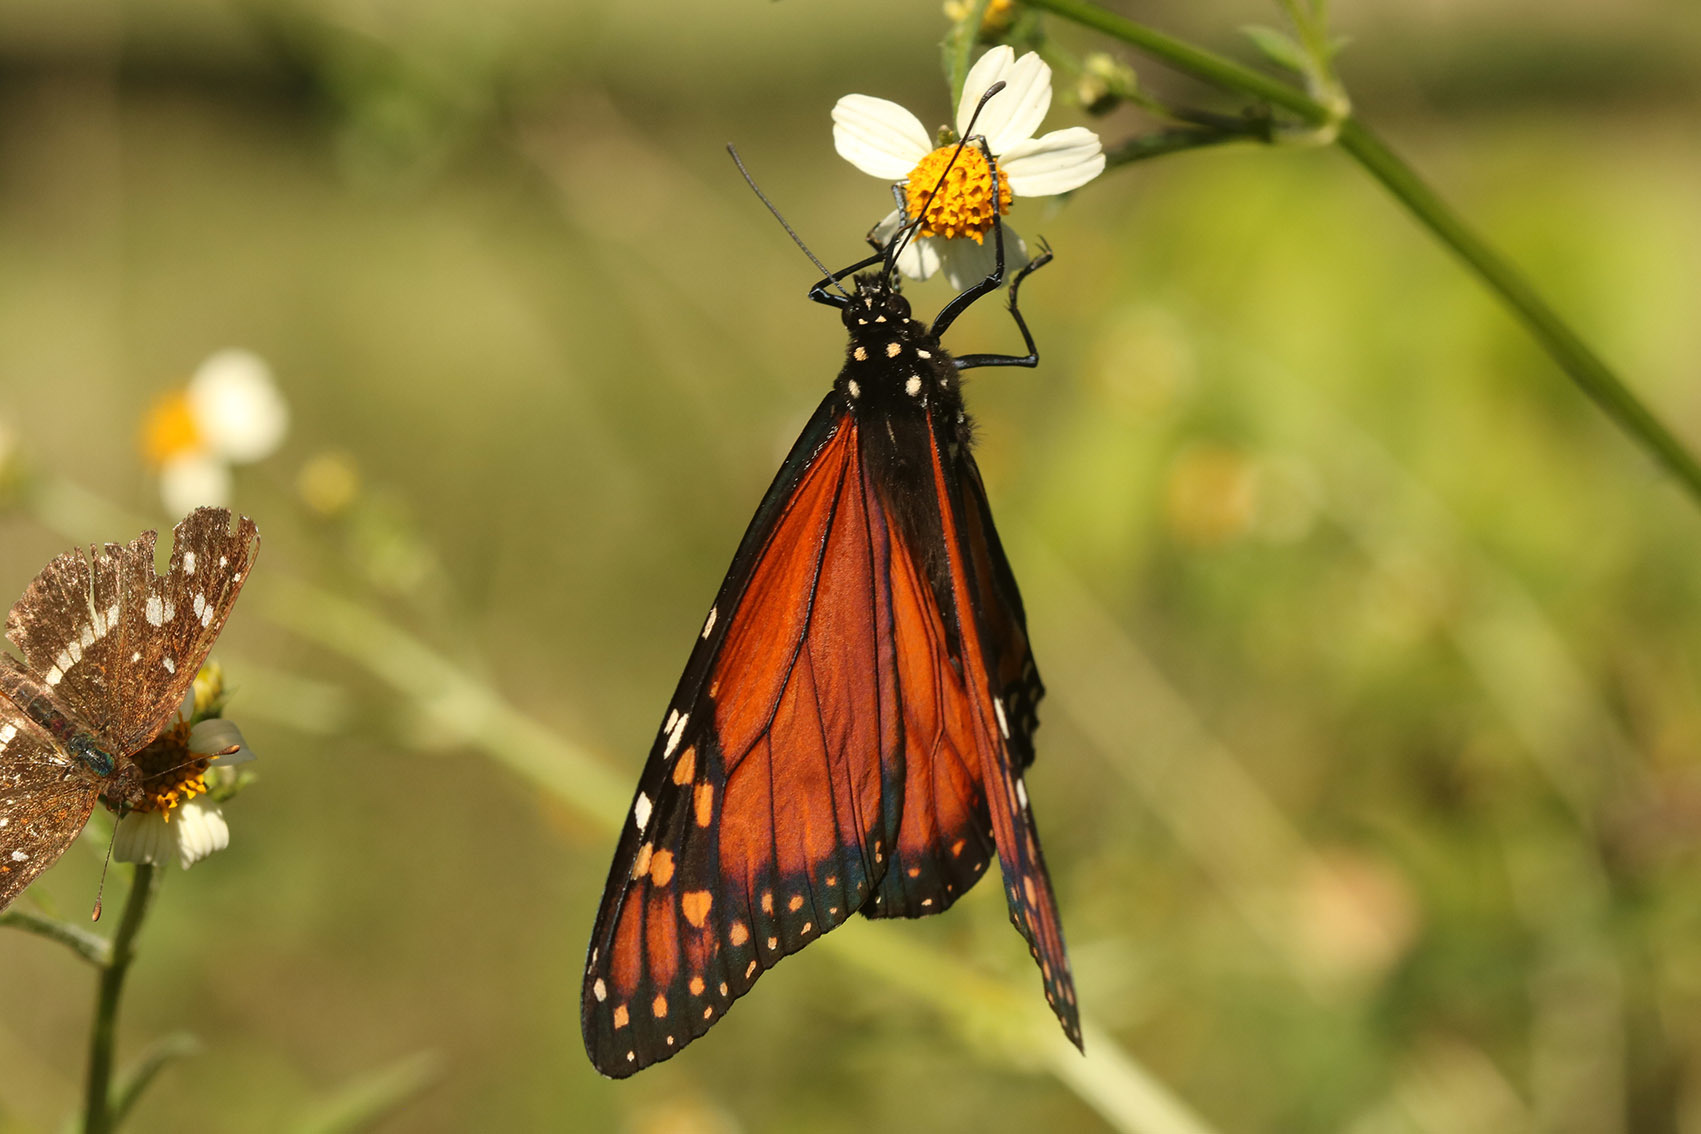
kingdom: Animalia
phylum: Arthropoda
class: Insecta
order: Lepidoptera
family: Nymphalidae
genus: Danaus
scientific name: Danaus erippus
